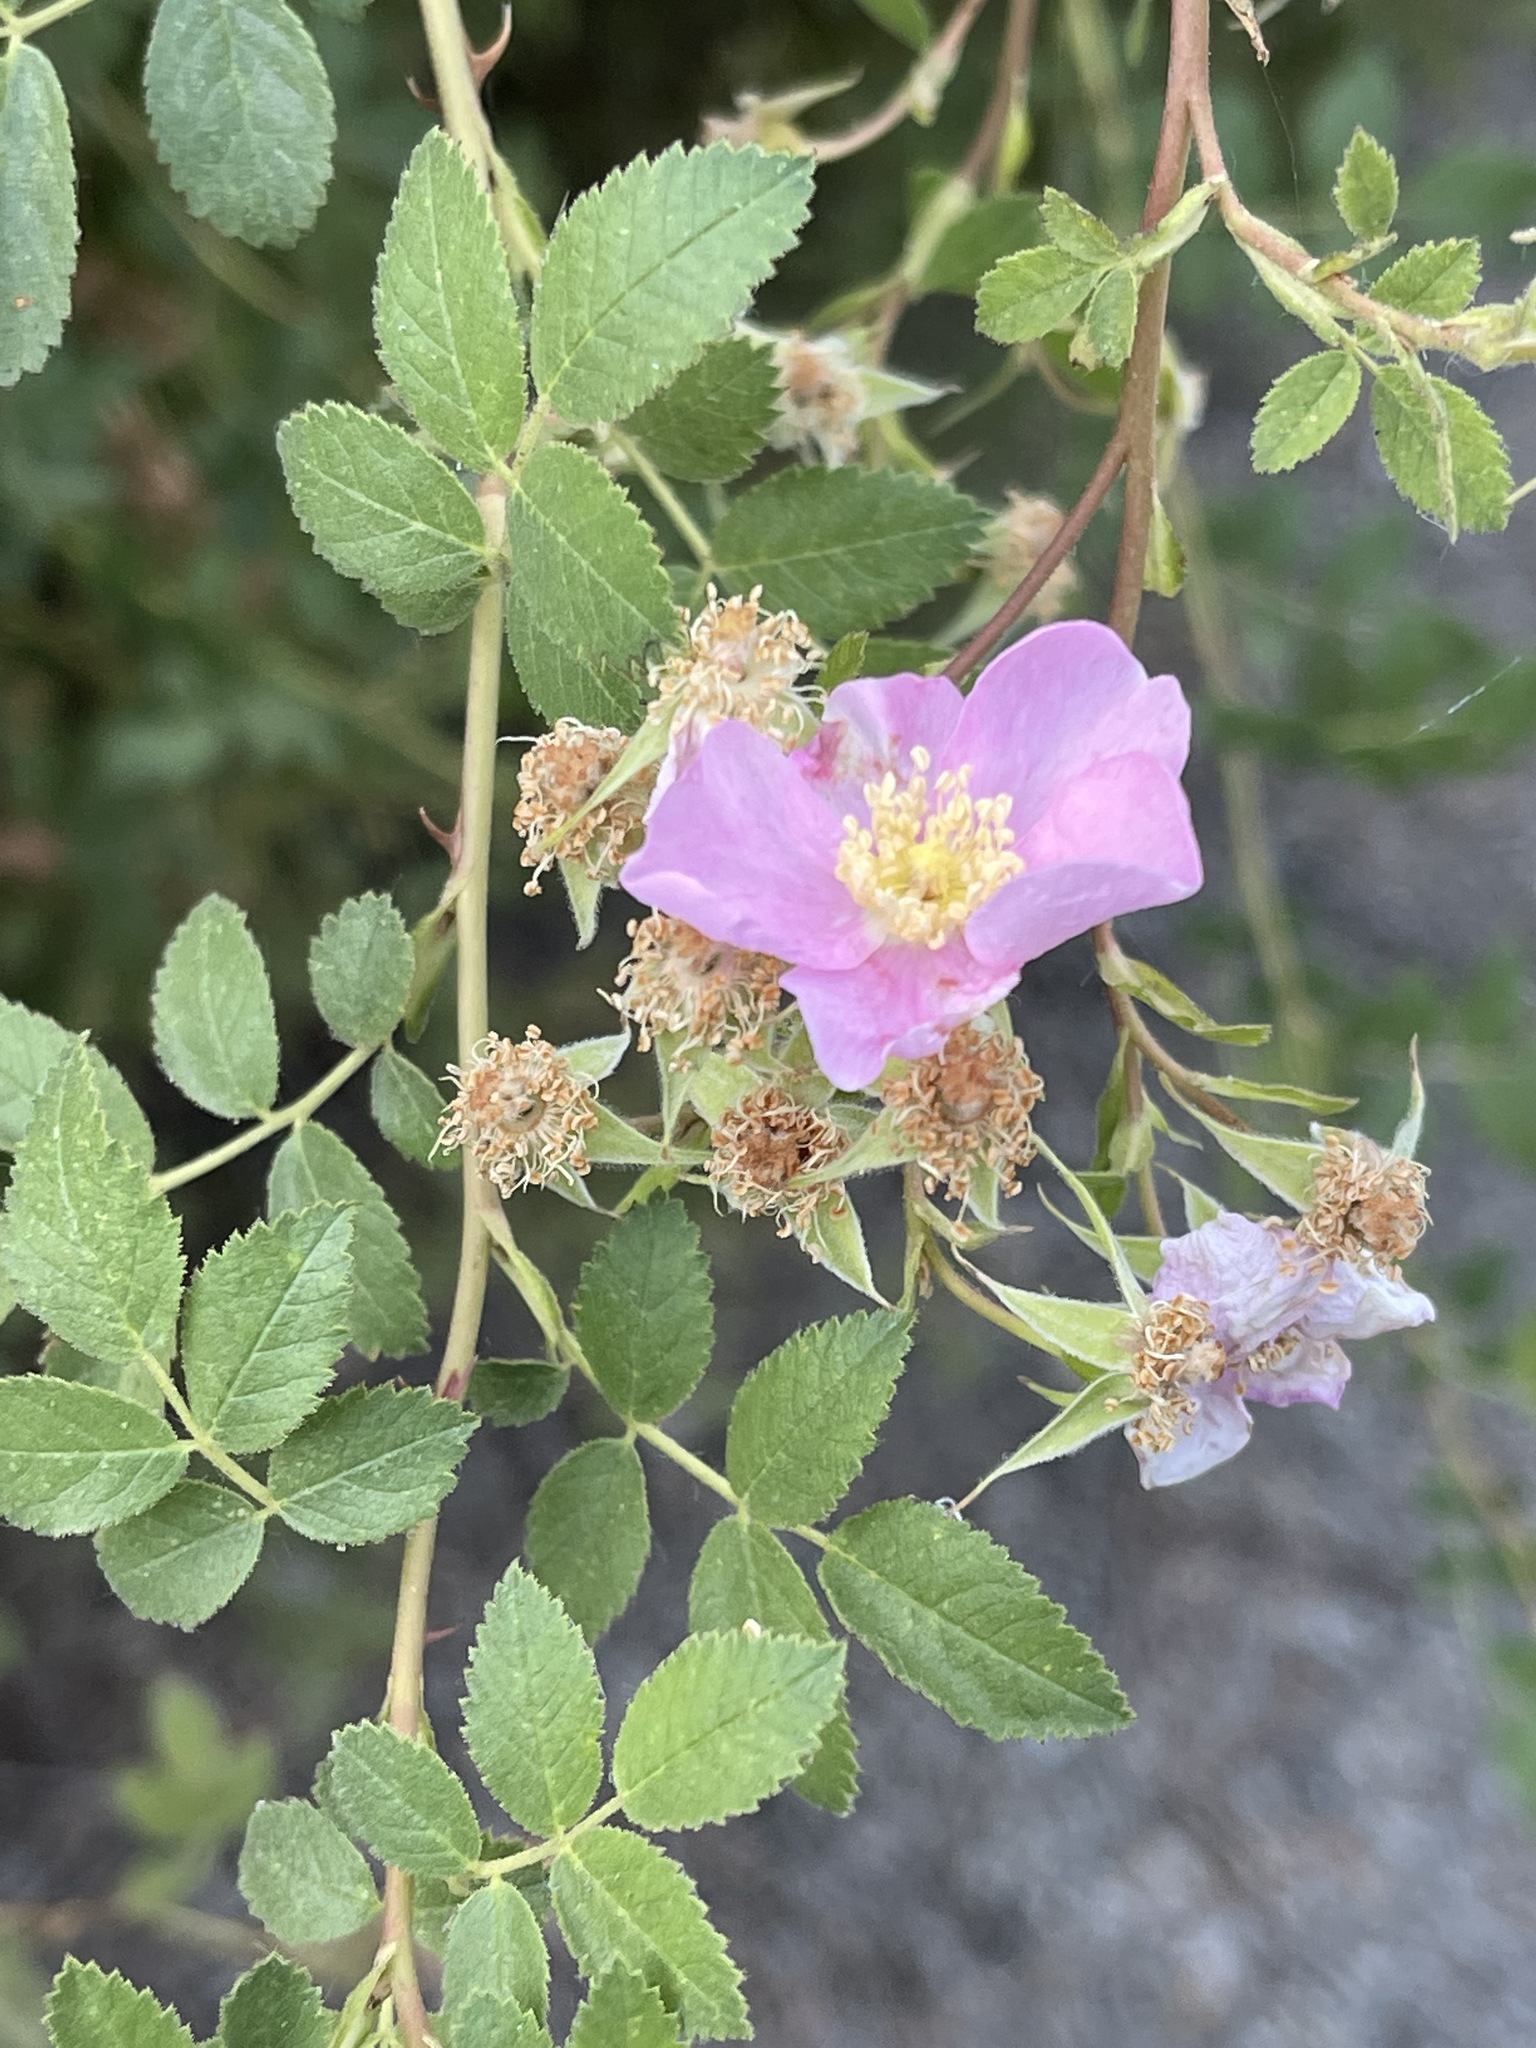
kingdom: Plantae
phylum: Tracheophyta
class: Magnoliopsida
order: Rosales
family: Rosaceae
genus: Rosa
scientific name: Rosa californica
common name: California rose
